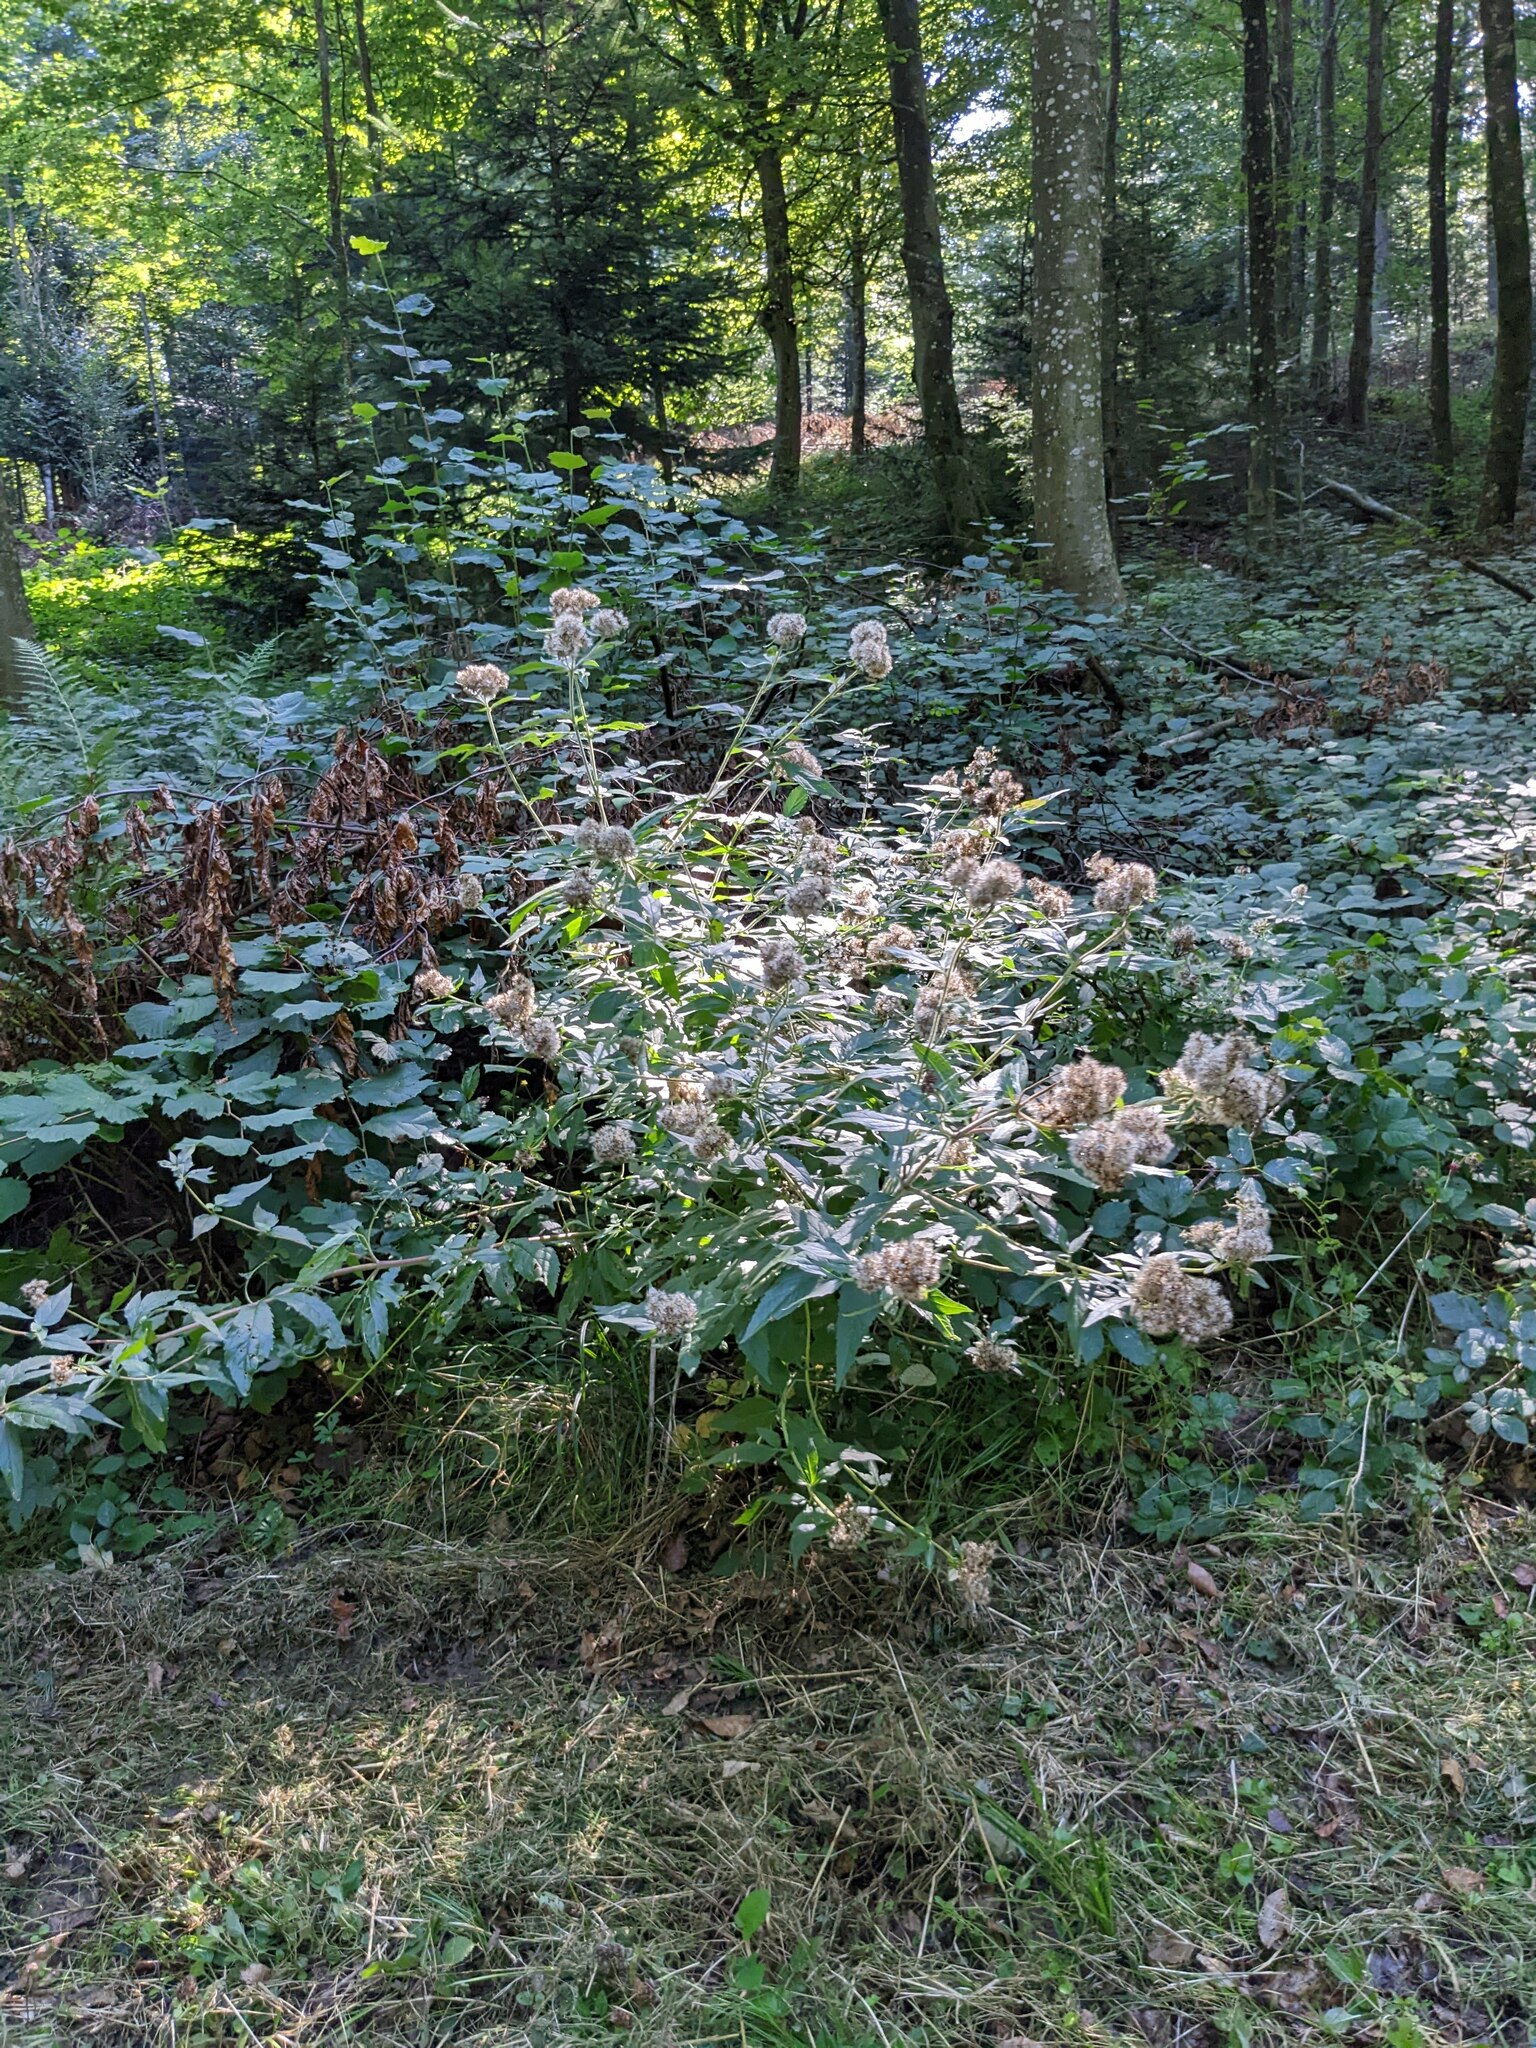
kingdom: Plantae
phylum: Tracheophyta
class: Magnoliopsida
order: Asterales
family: Asteraceae
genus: Eupatorium
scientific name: Eupatorium cannabinum
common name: Hemp-agrimony
